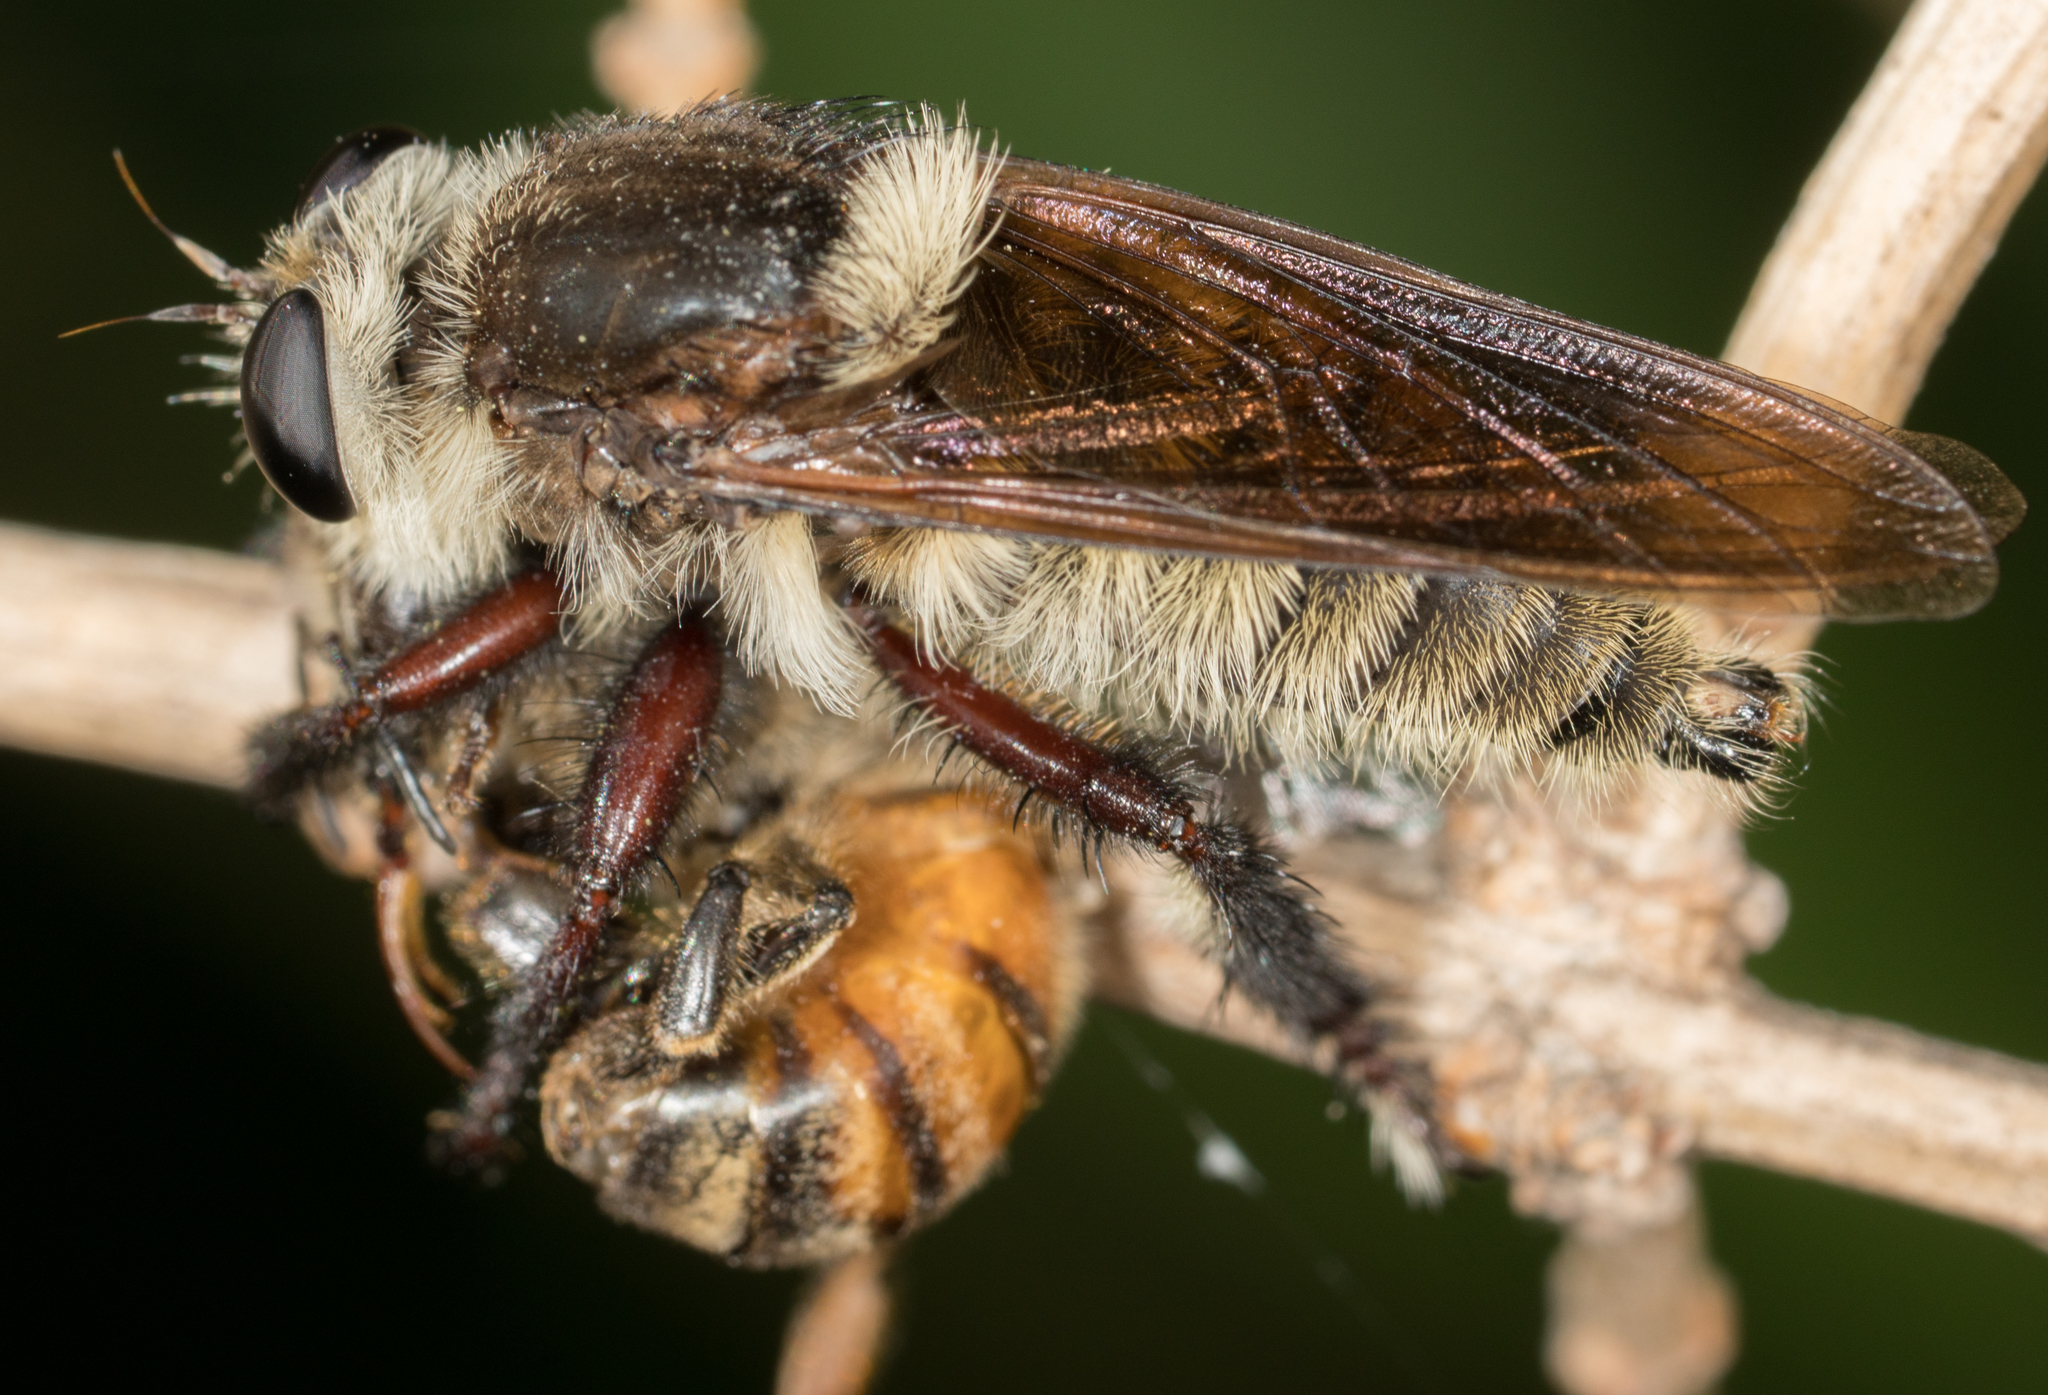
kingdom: Animalia
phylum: Arthropoda
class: Insecta
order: Diptera
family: Asilidae
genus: Mallophora
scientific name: Mallophora fautrix
